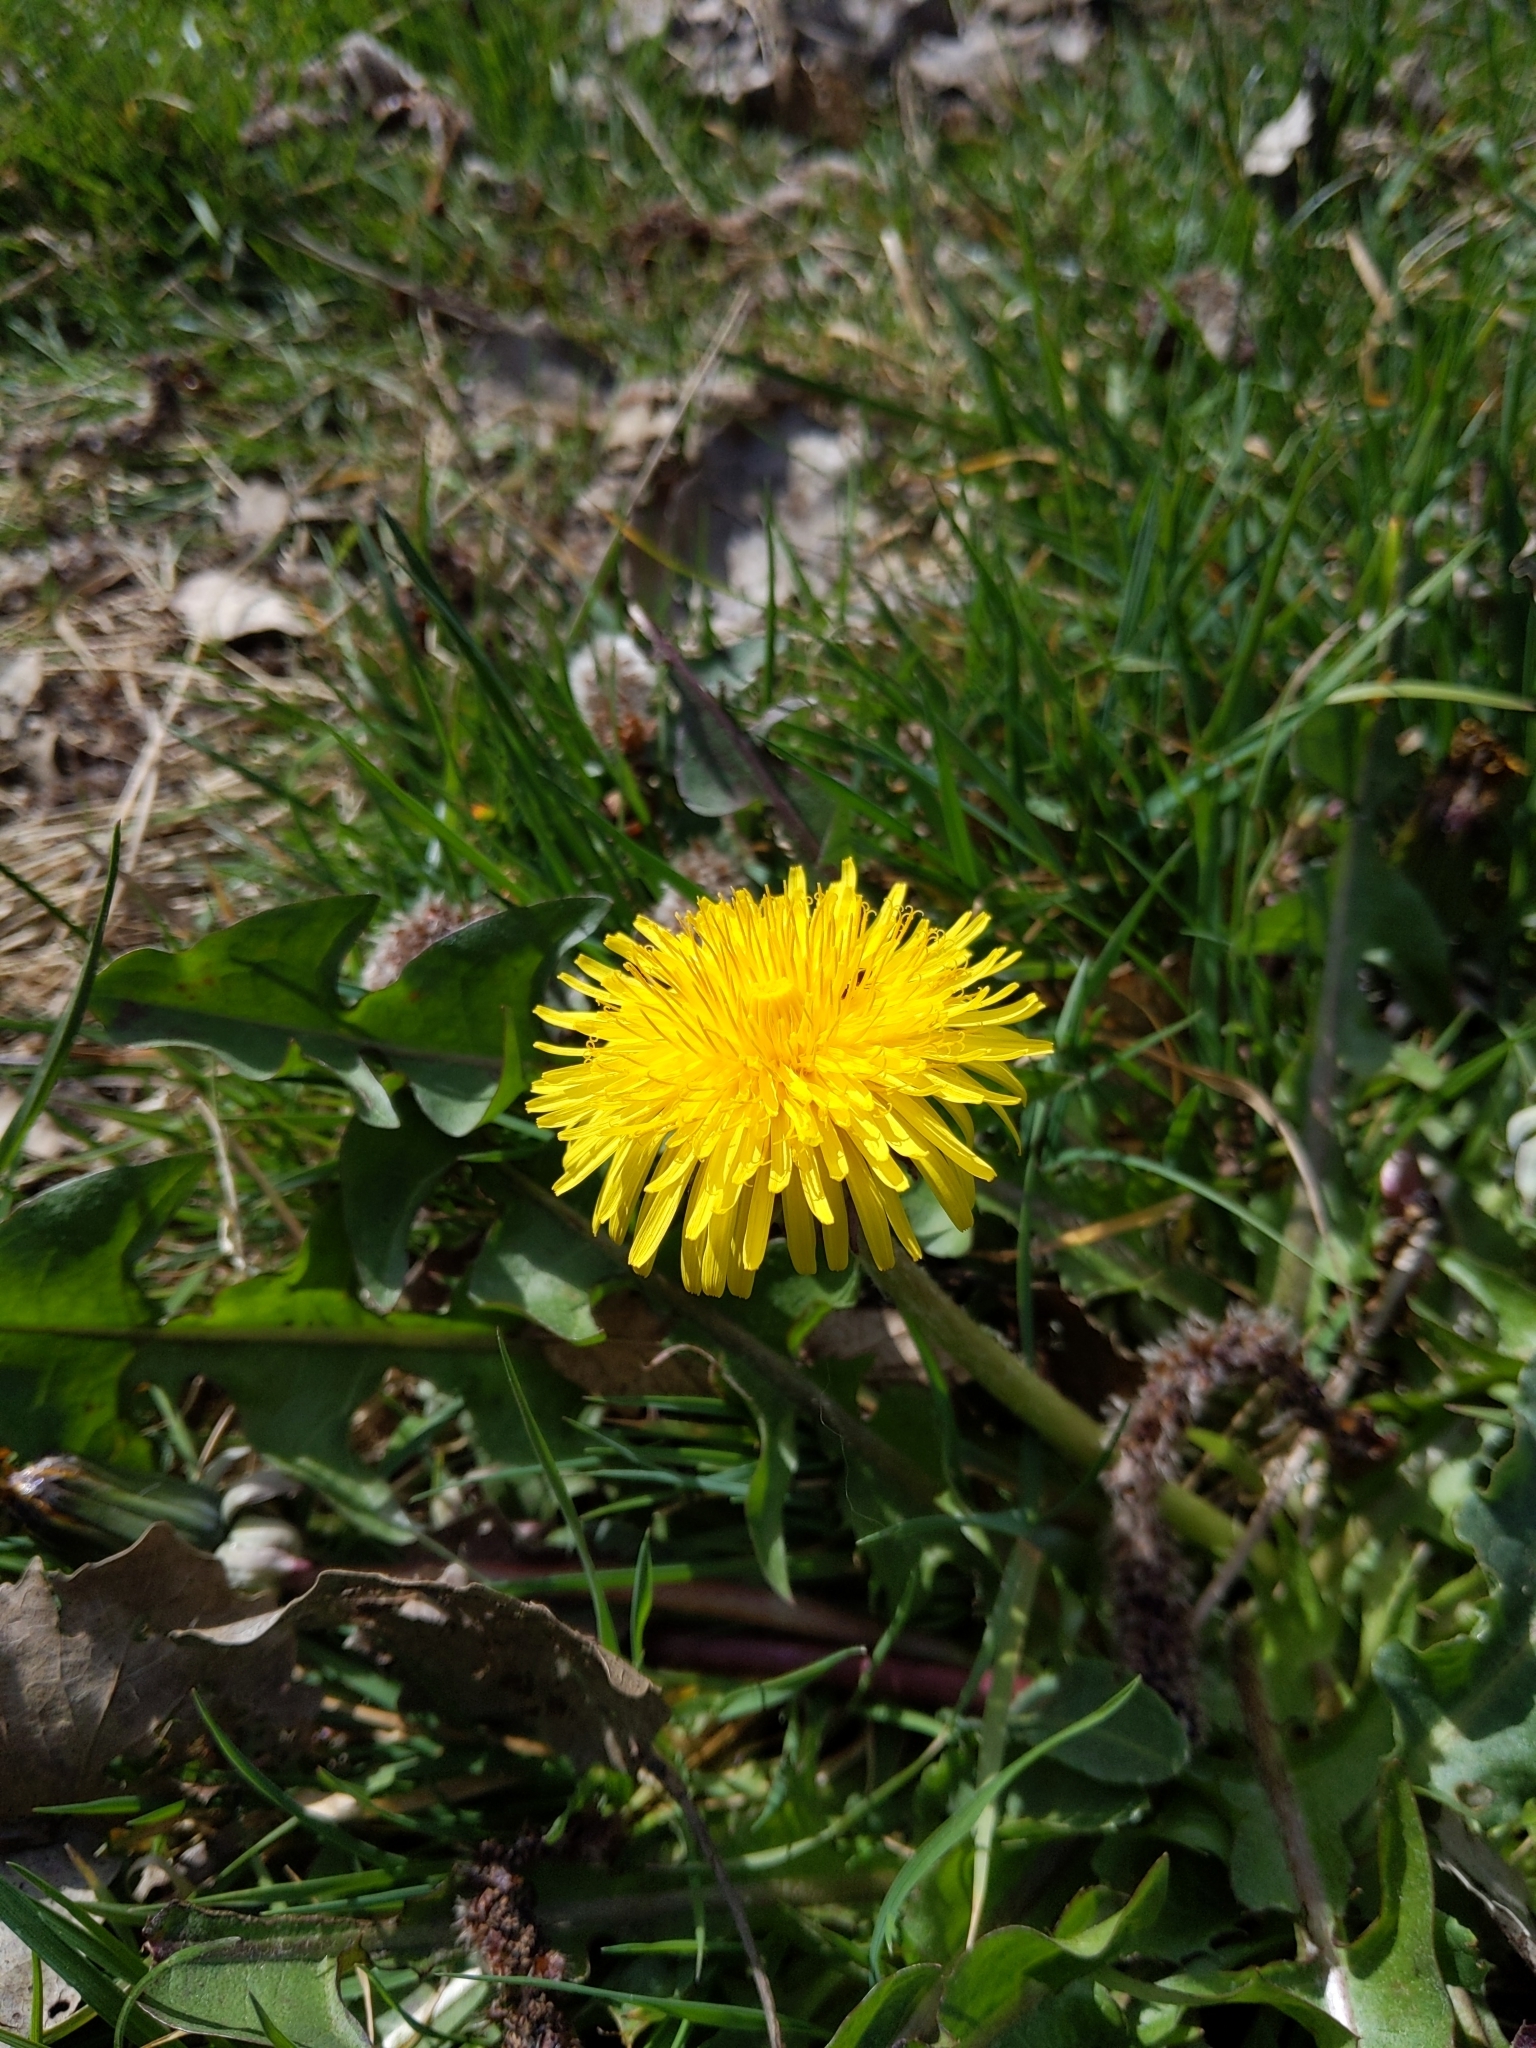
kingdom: Plantae
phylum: Tracheophyta
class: Magnoliopsida
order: Asterales
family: Asteraceae
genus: Taraxacum
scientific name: Taraxacum officinale
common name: Common dandelion
